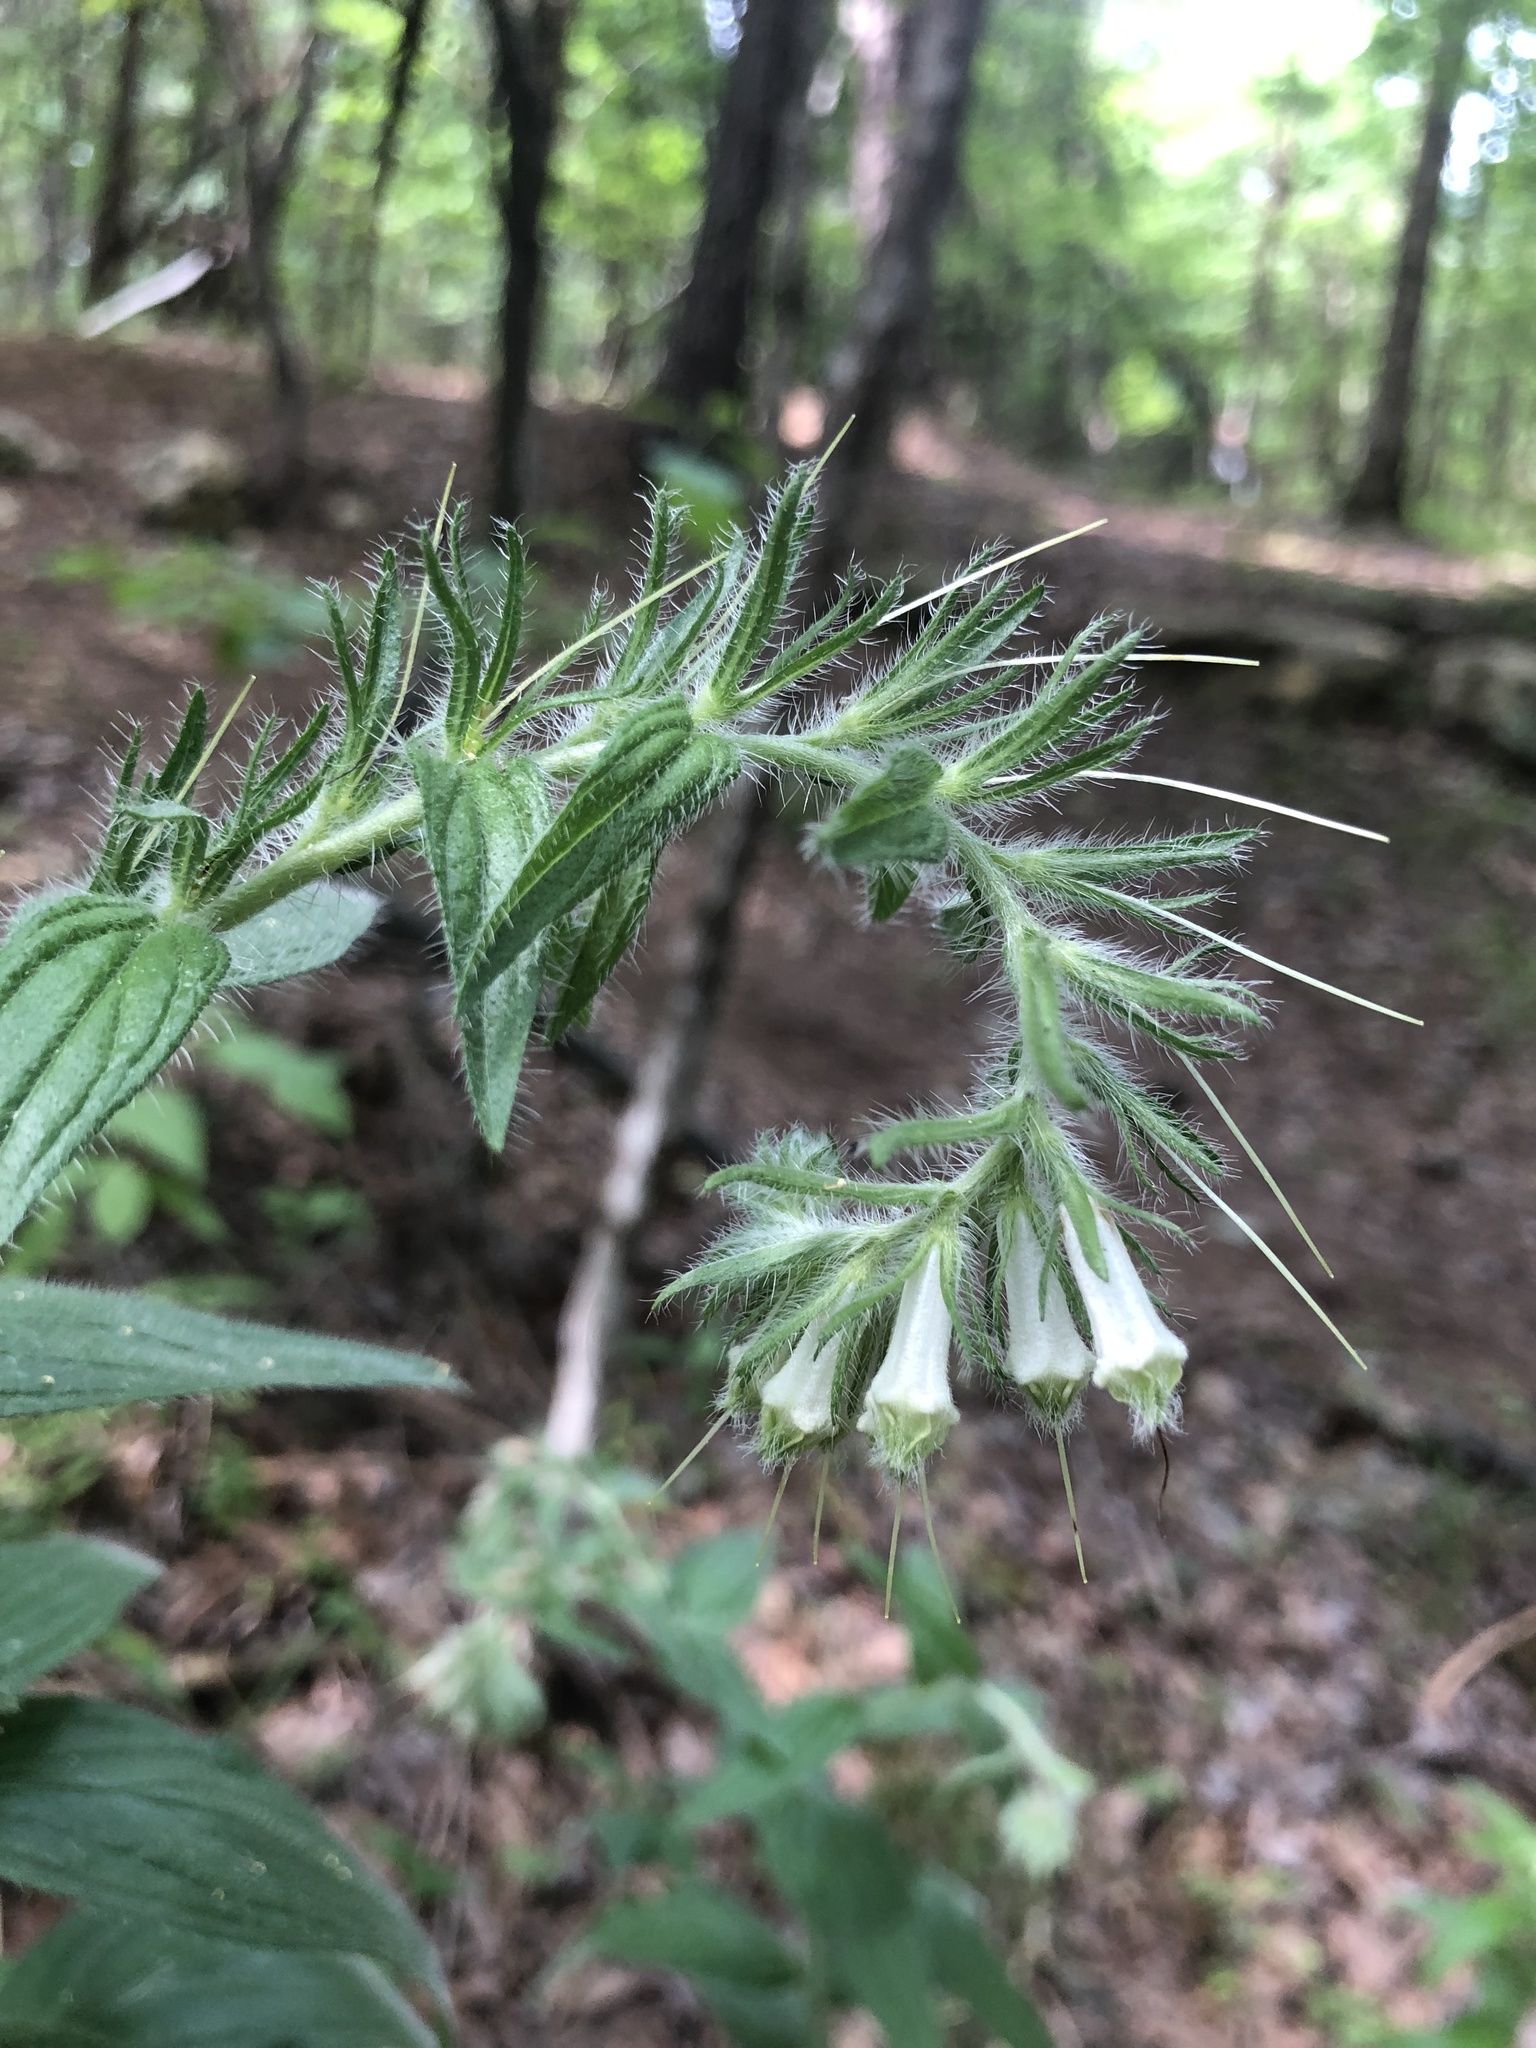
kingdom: Plantae
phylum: Tracheophyta
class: Magnoliopsida
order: Boraginales
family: Boraginaceae
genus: Lithospermum
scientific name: Lithospermum caroliniense
